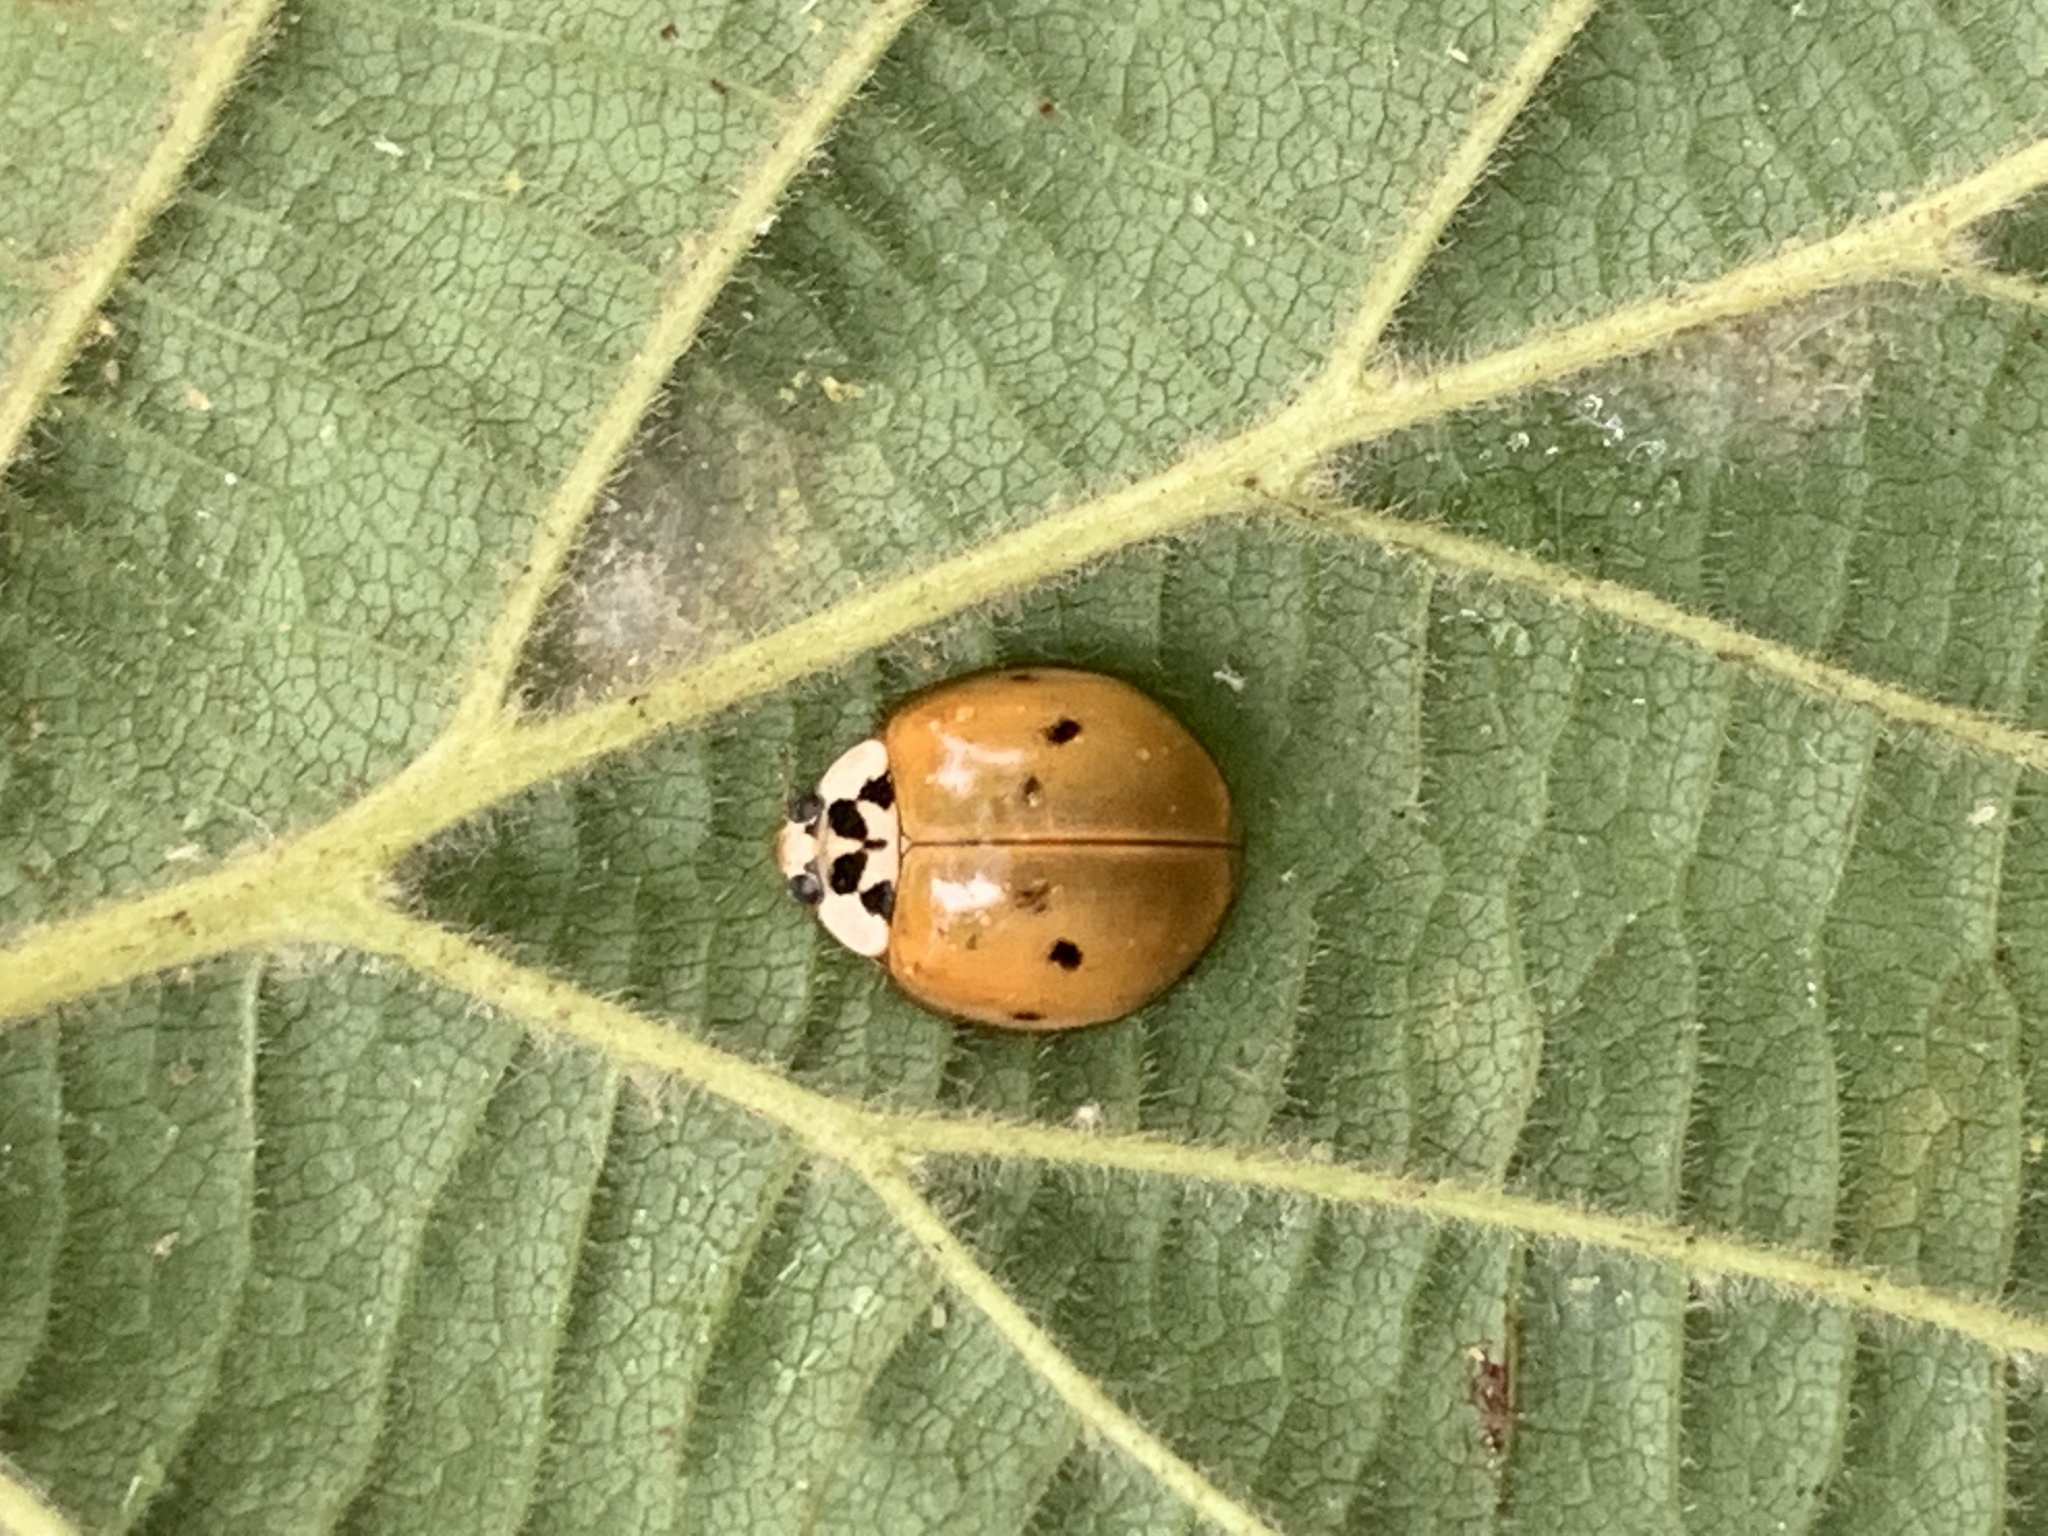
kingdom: Animalia
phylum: Arthropoda
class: Insecta
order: Coleoptera
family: Coccinellidae
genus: Harmonia
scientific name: Harmonia axyridis
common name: Harlequin ladybird
